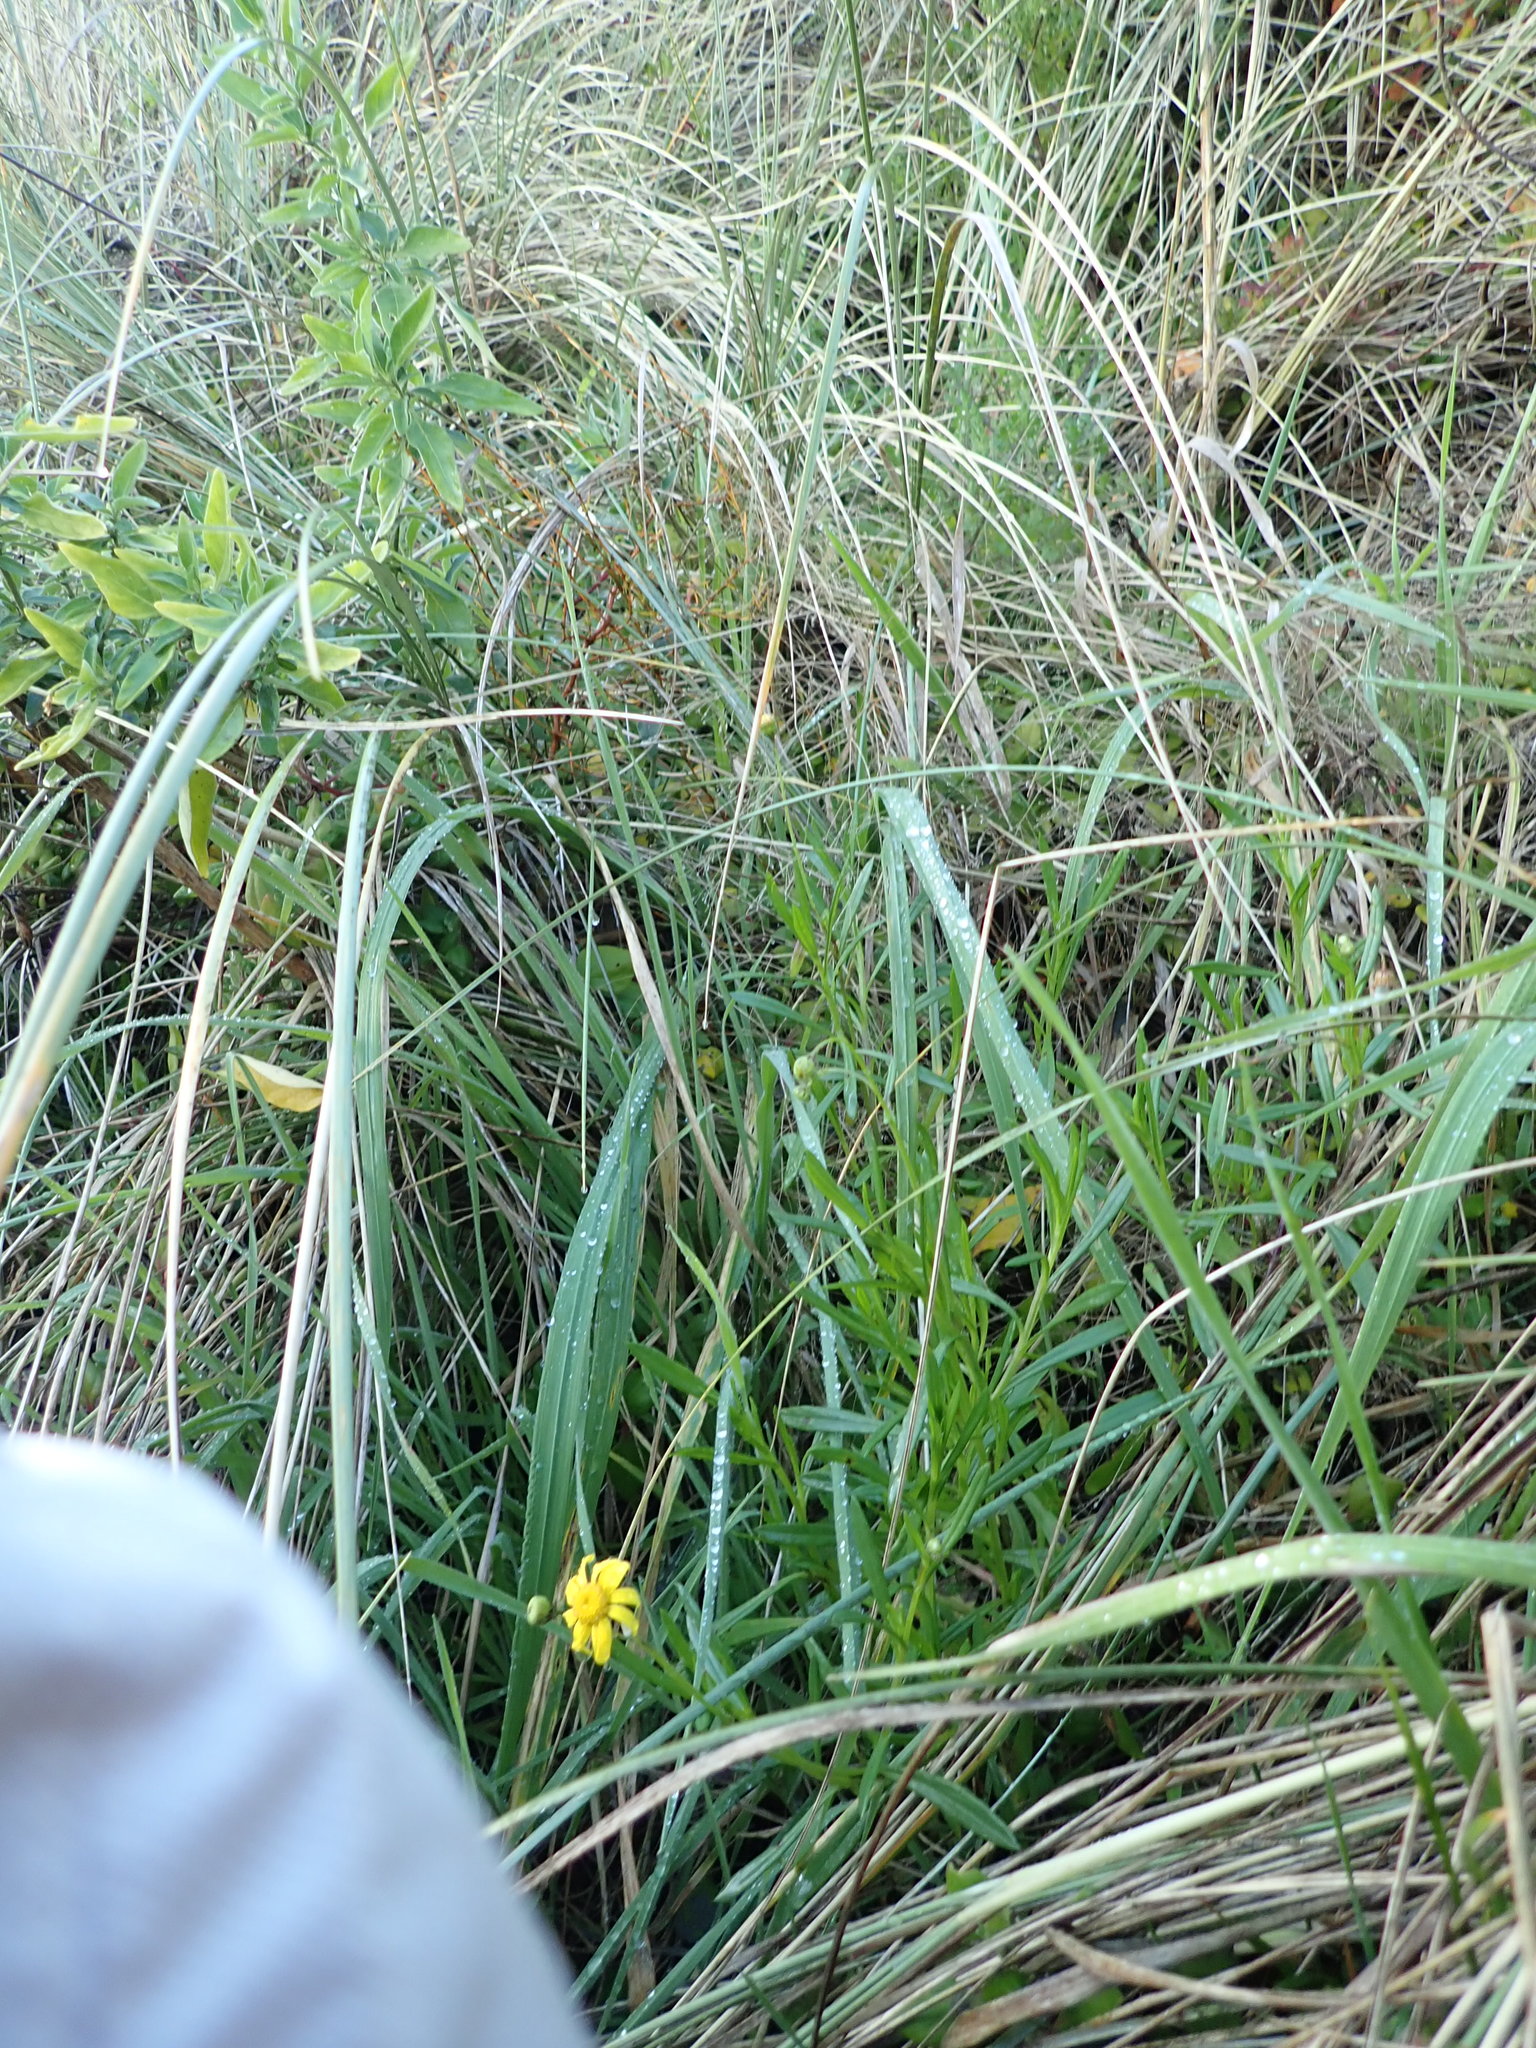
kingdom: Plantae
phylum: Tracheophyta
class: Magnoliopsida
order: Asterales
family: Asteraceae
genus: Senecio
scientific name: Senecio skirrhodon
